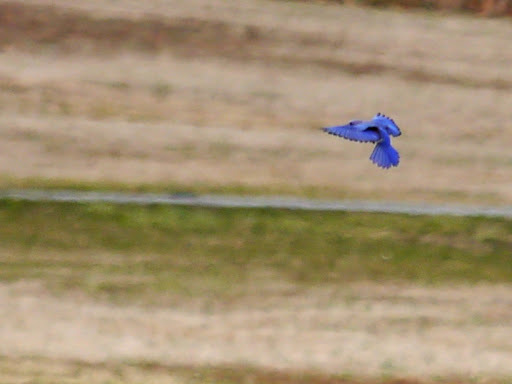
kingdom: Animalia
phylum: Chordata
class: Aves
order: Passeriformes
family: Turdidae
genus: Sialia
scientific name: Sialia sialis
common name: Eastern bluebird
